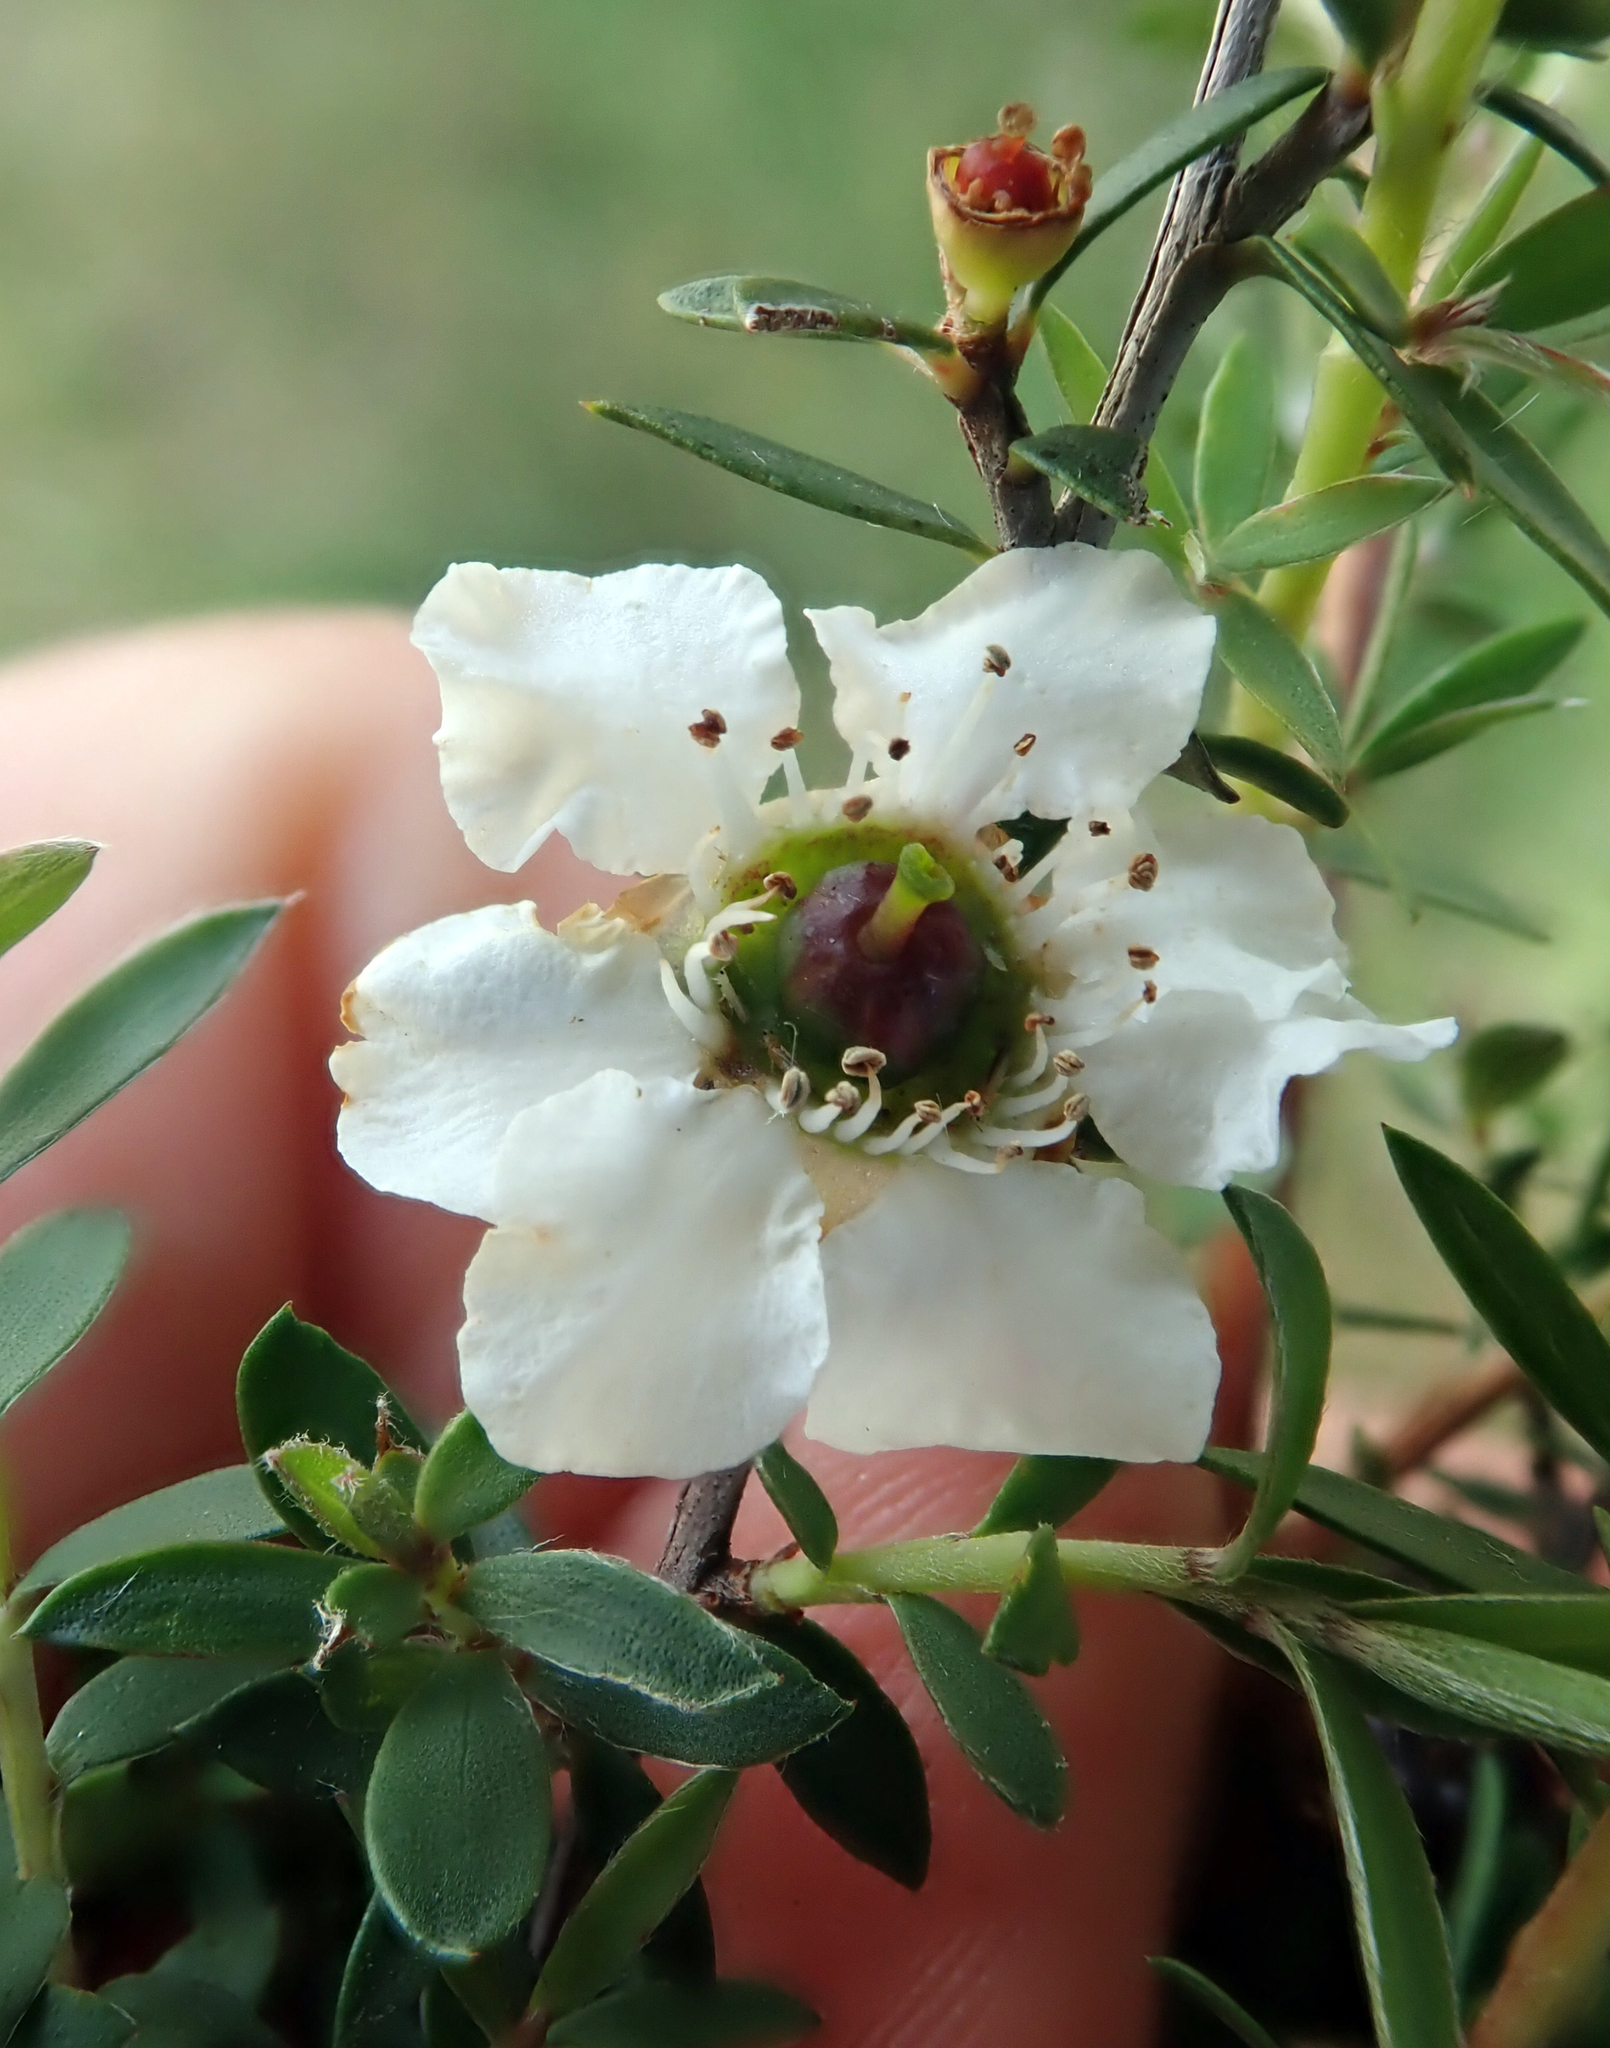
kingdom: Plantae
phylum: Tracheophyta
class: Magnoliopsida
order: Myrtales
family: Myrtaceae
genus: Leptospermum
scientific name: Leptospermum scoparium
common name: Broom tea-tree
